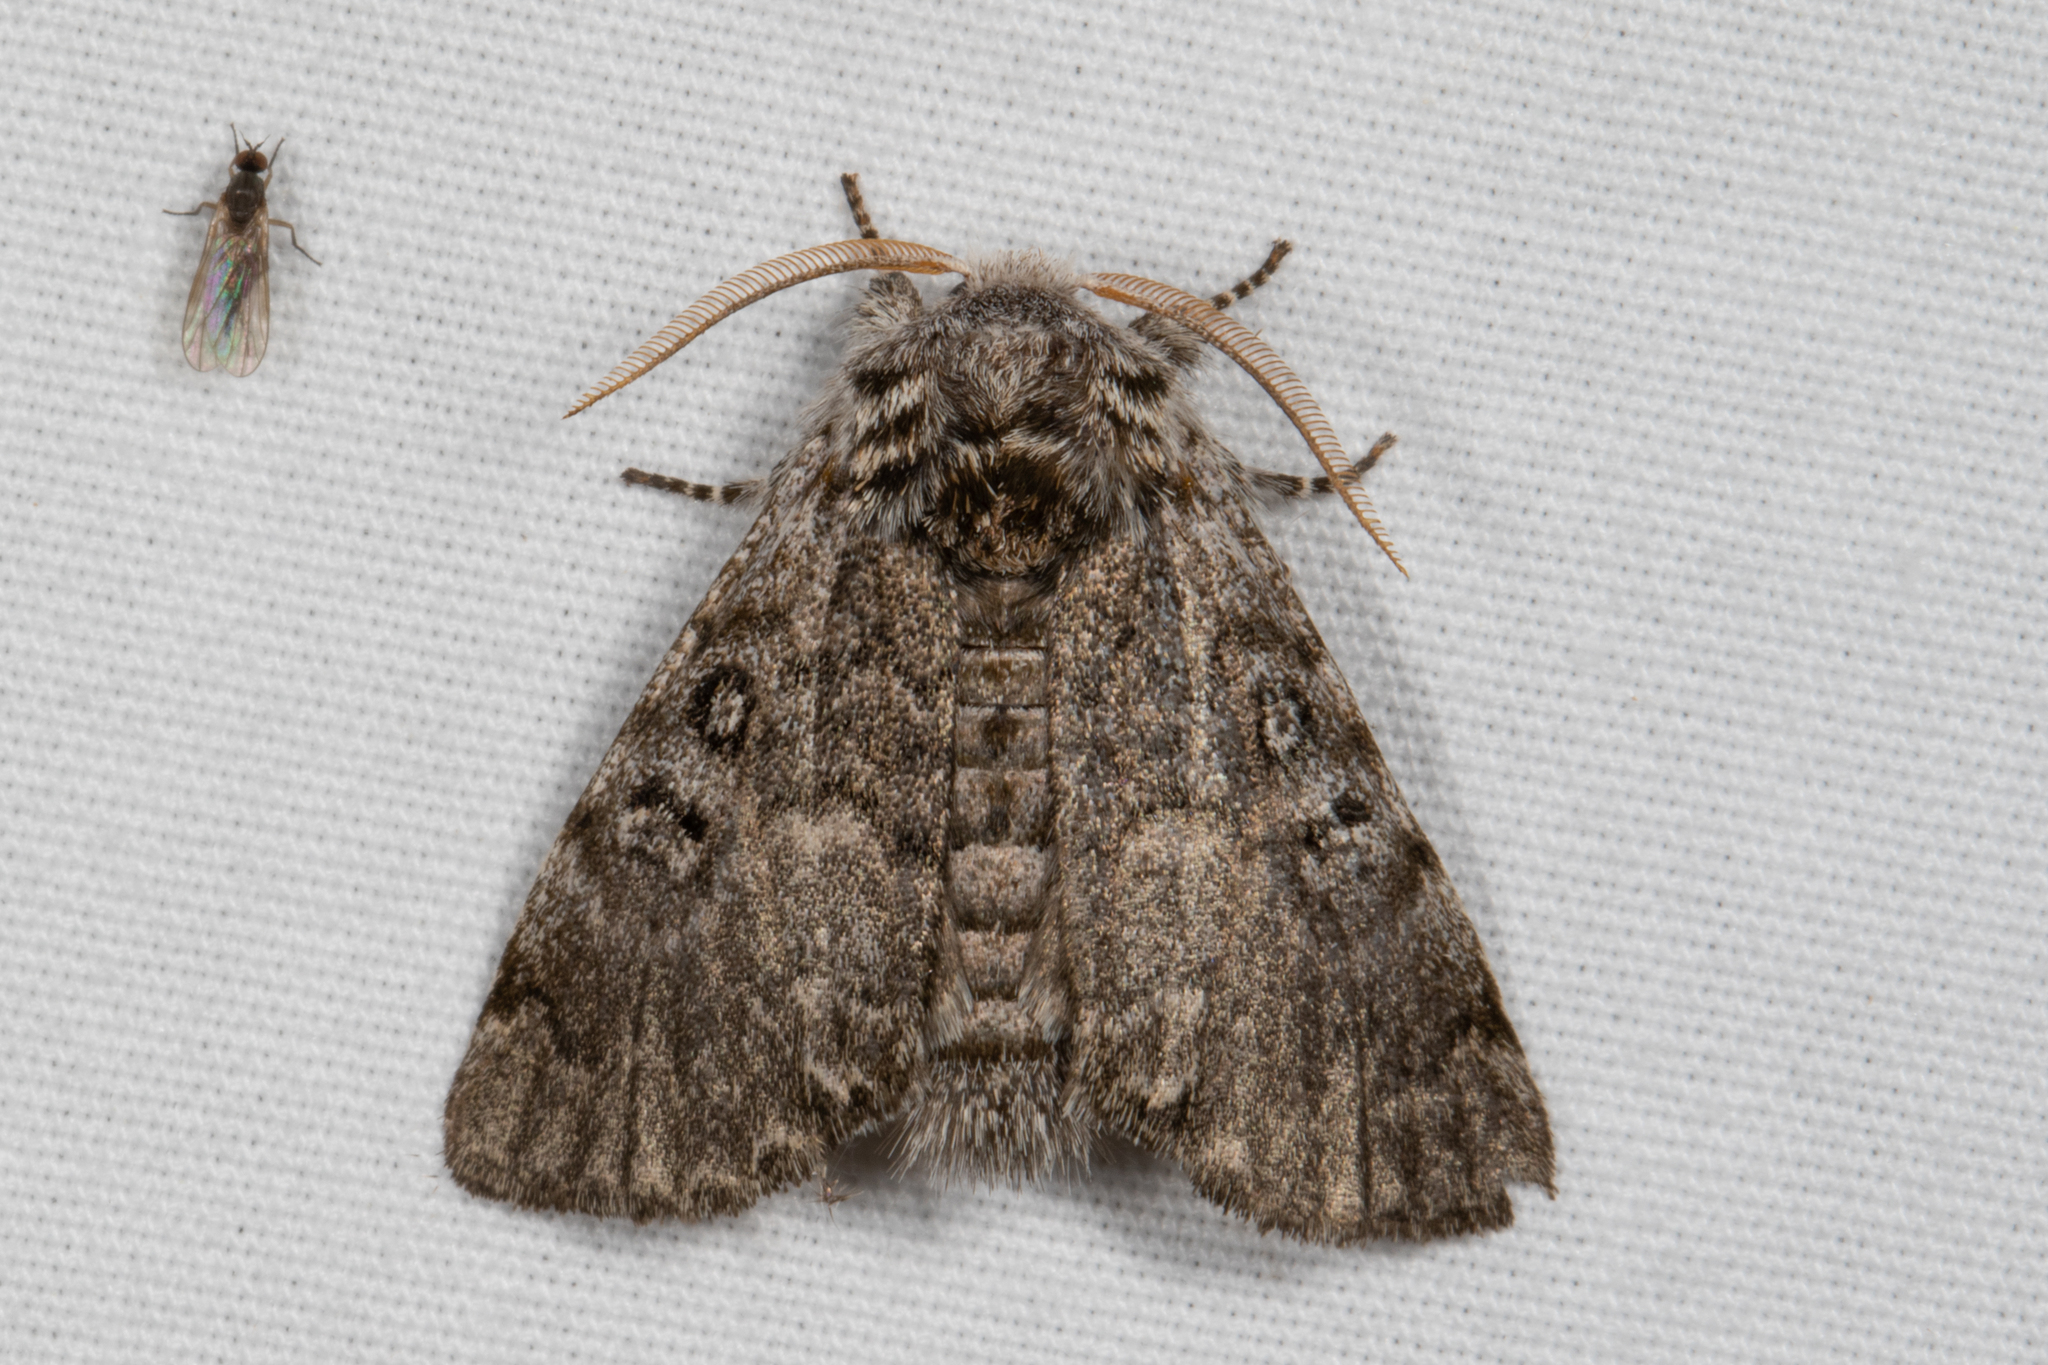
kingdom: Animalia
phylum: Arthropoda
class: Insecta
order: Lepidoptera
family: Noctuidae
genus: Colocasia
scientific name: Colocasia propinquilinea
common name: Close-banded demas
